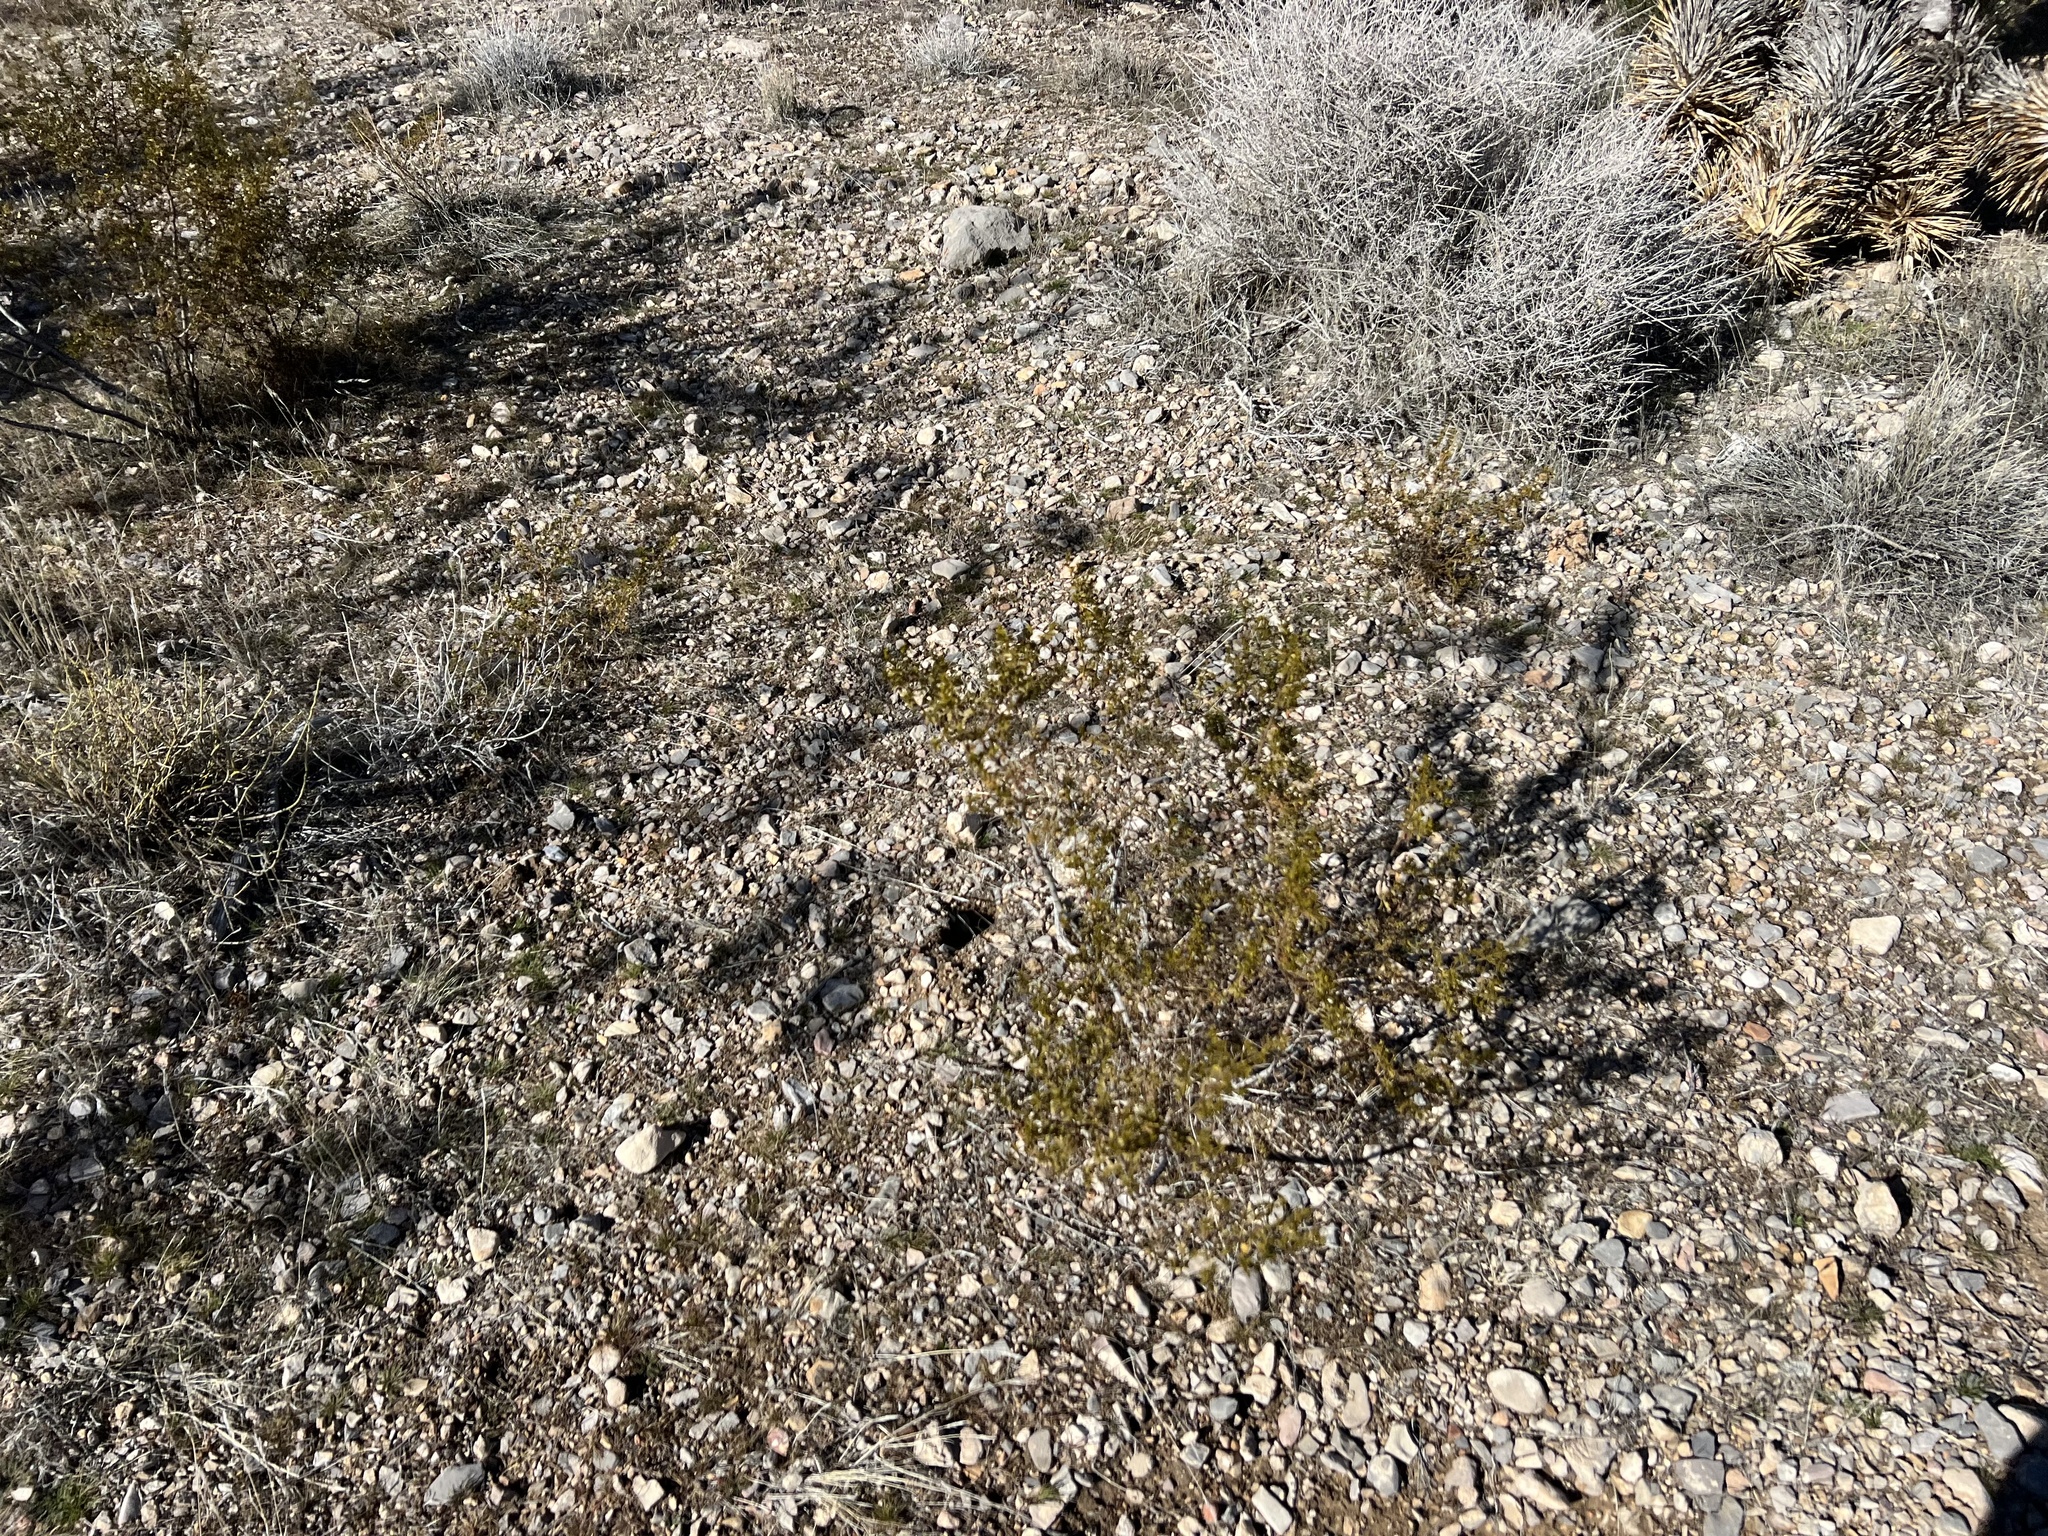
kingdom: Plantae
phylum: Tracheophyta
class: Magnoliopsida
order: Zygophyllales
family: Zygophyllaceae
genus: Larrea
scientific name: Larrea tridentata
